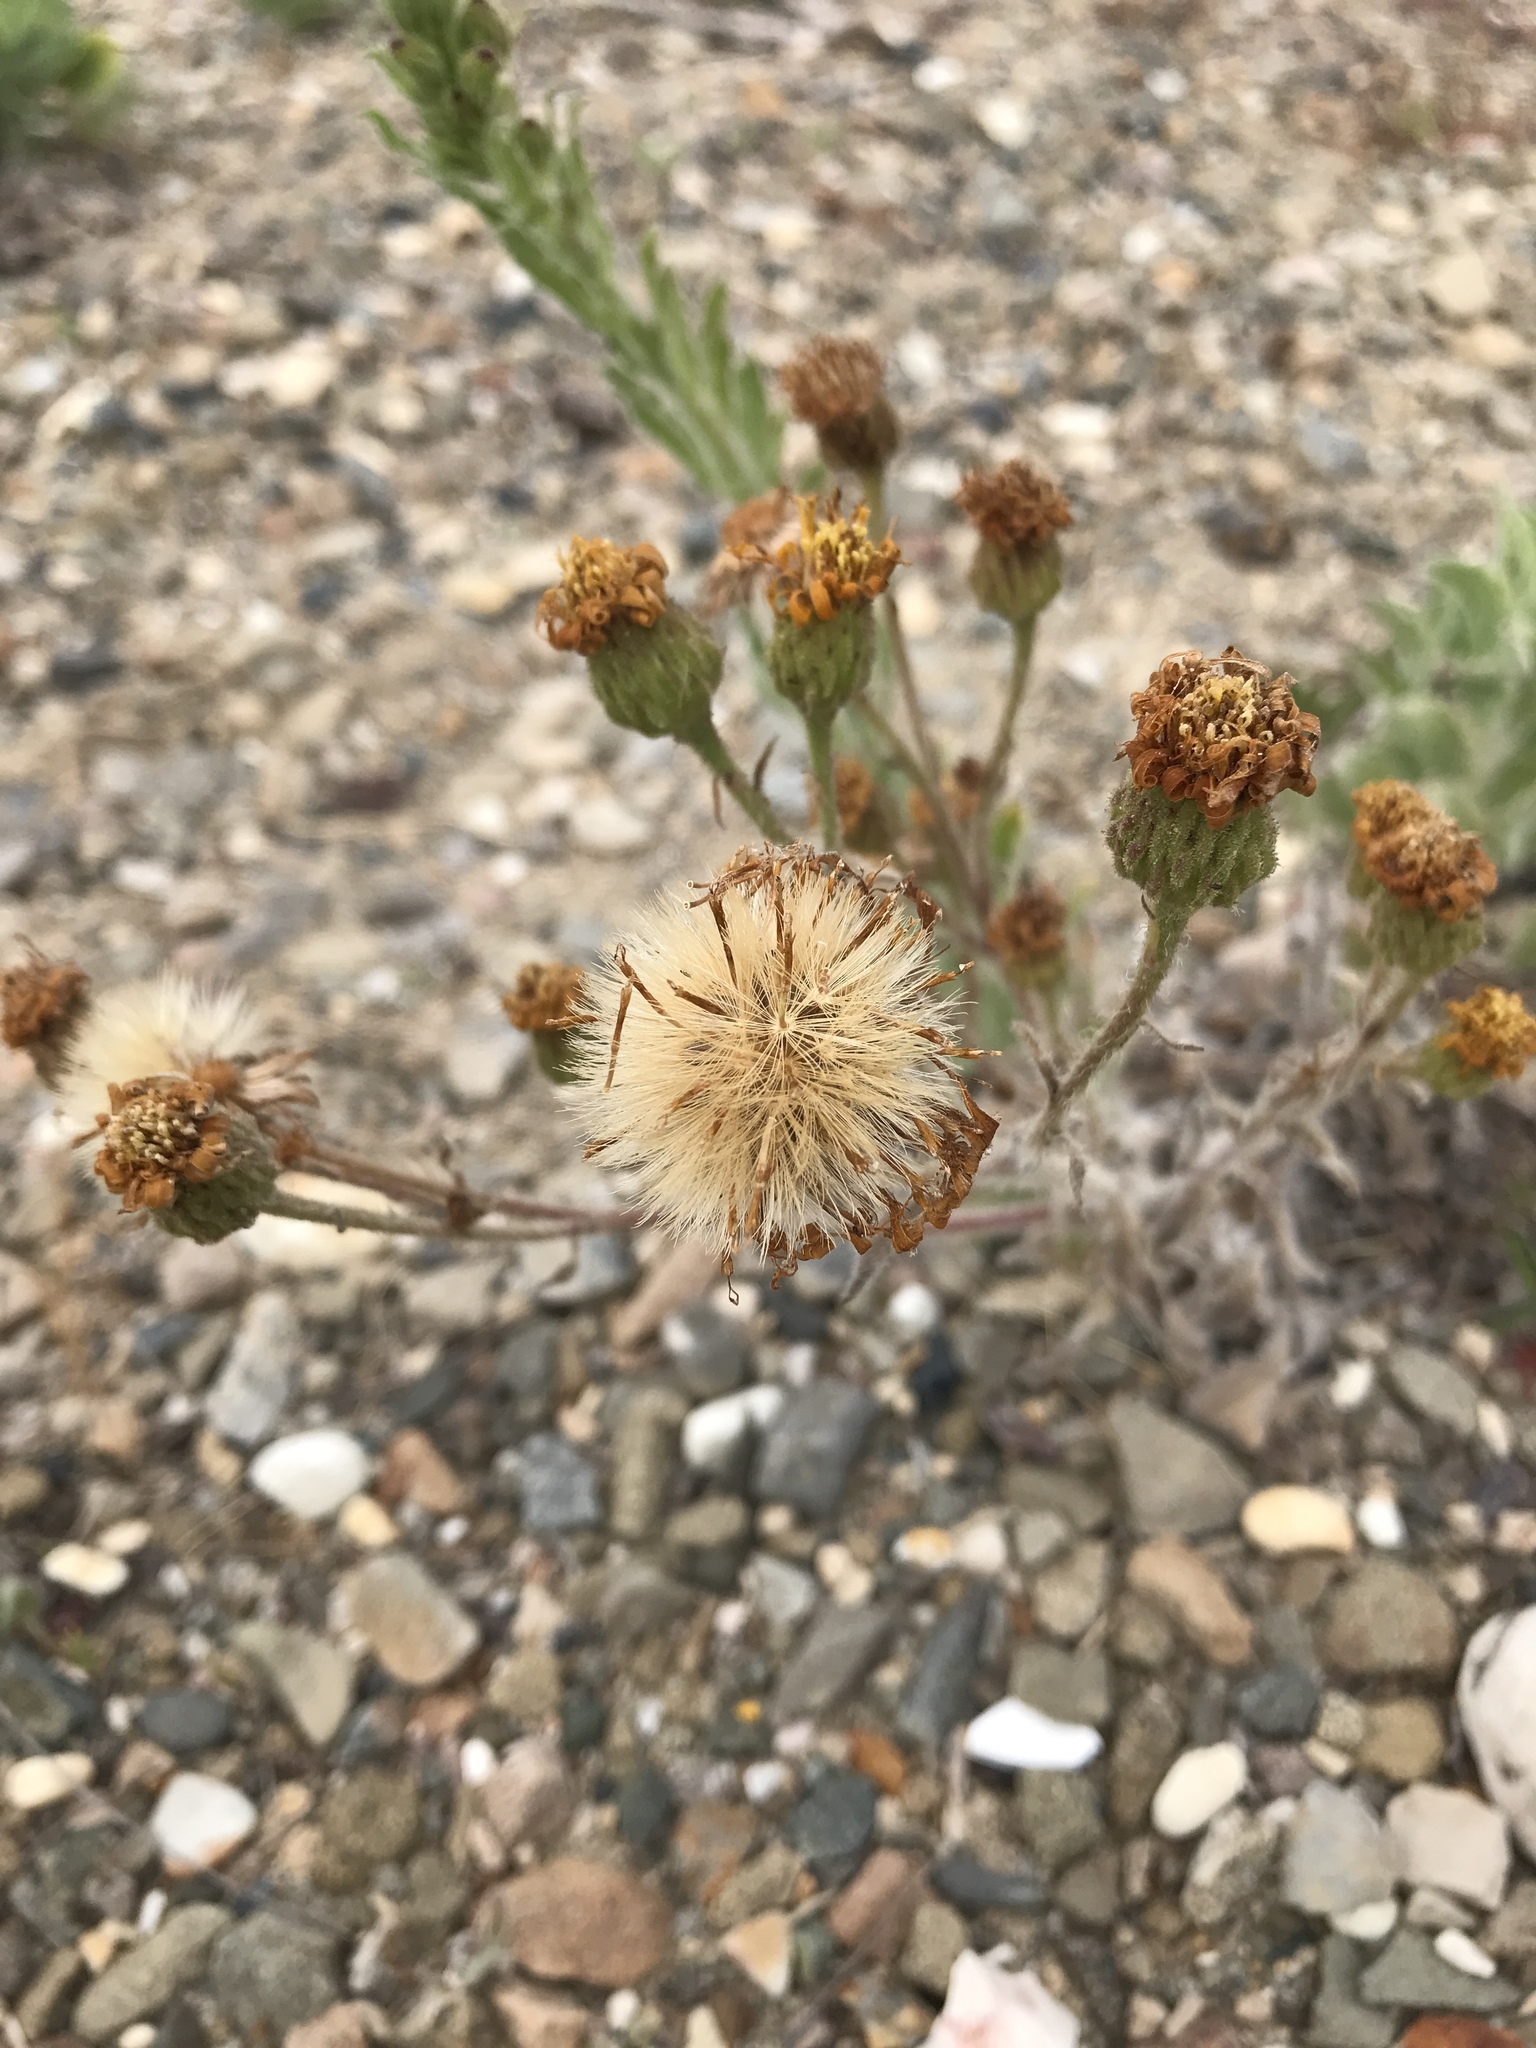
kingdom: Plantae
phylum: Tracheophyta
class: Magnoliopsida
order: Asterales
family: Asteraceae
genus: Heterotheca
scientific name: Heterotheca grandiflora
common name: Telegraphweed
